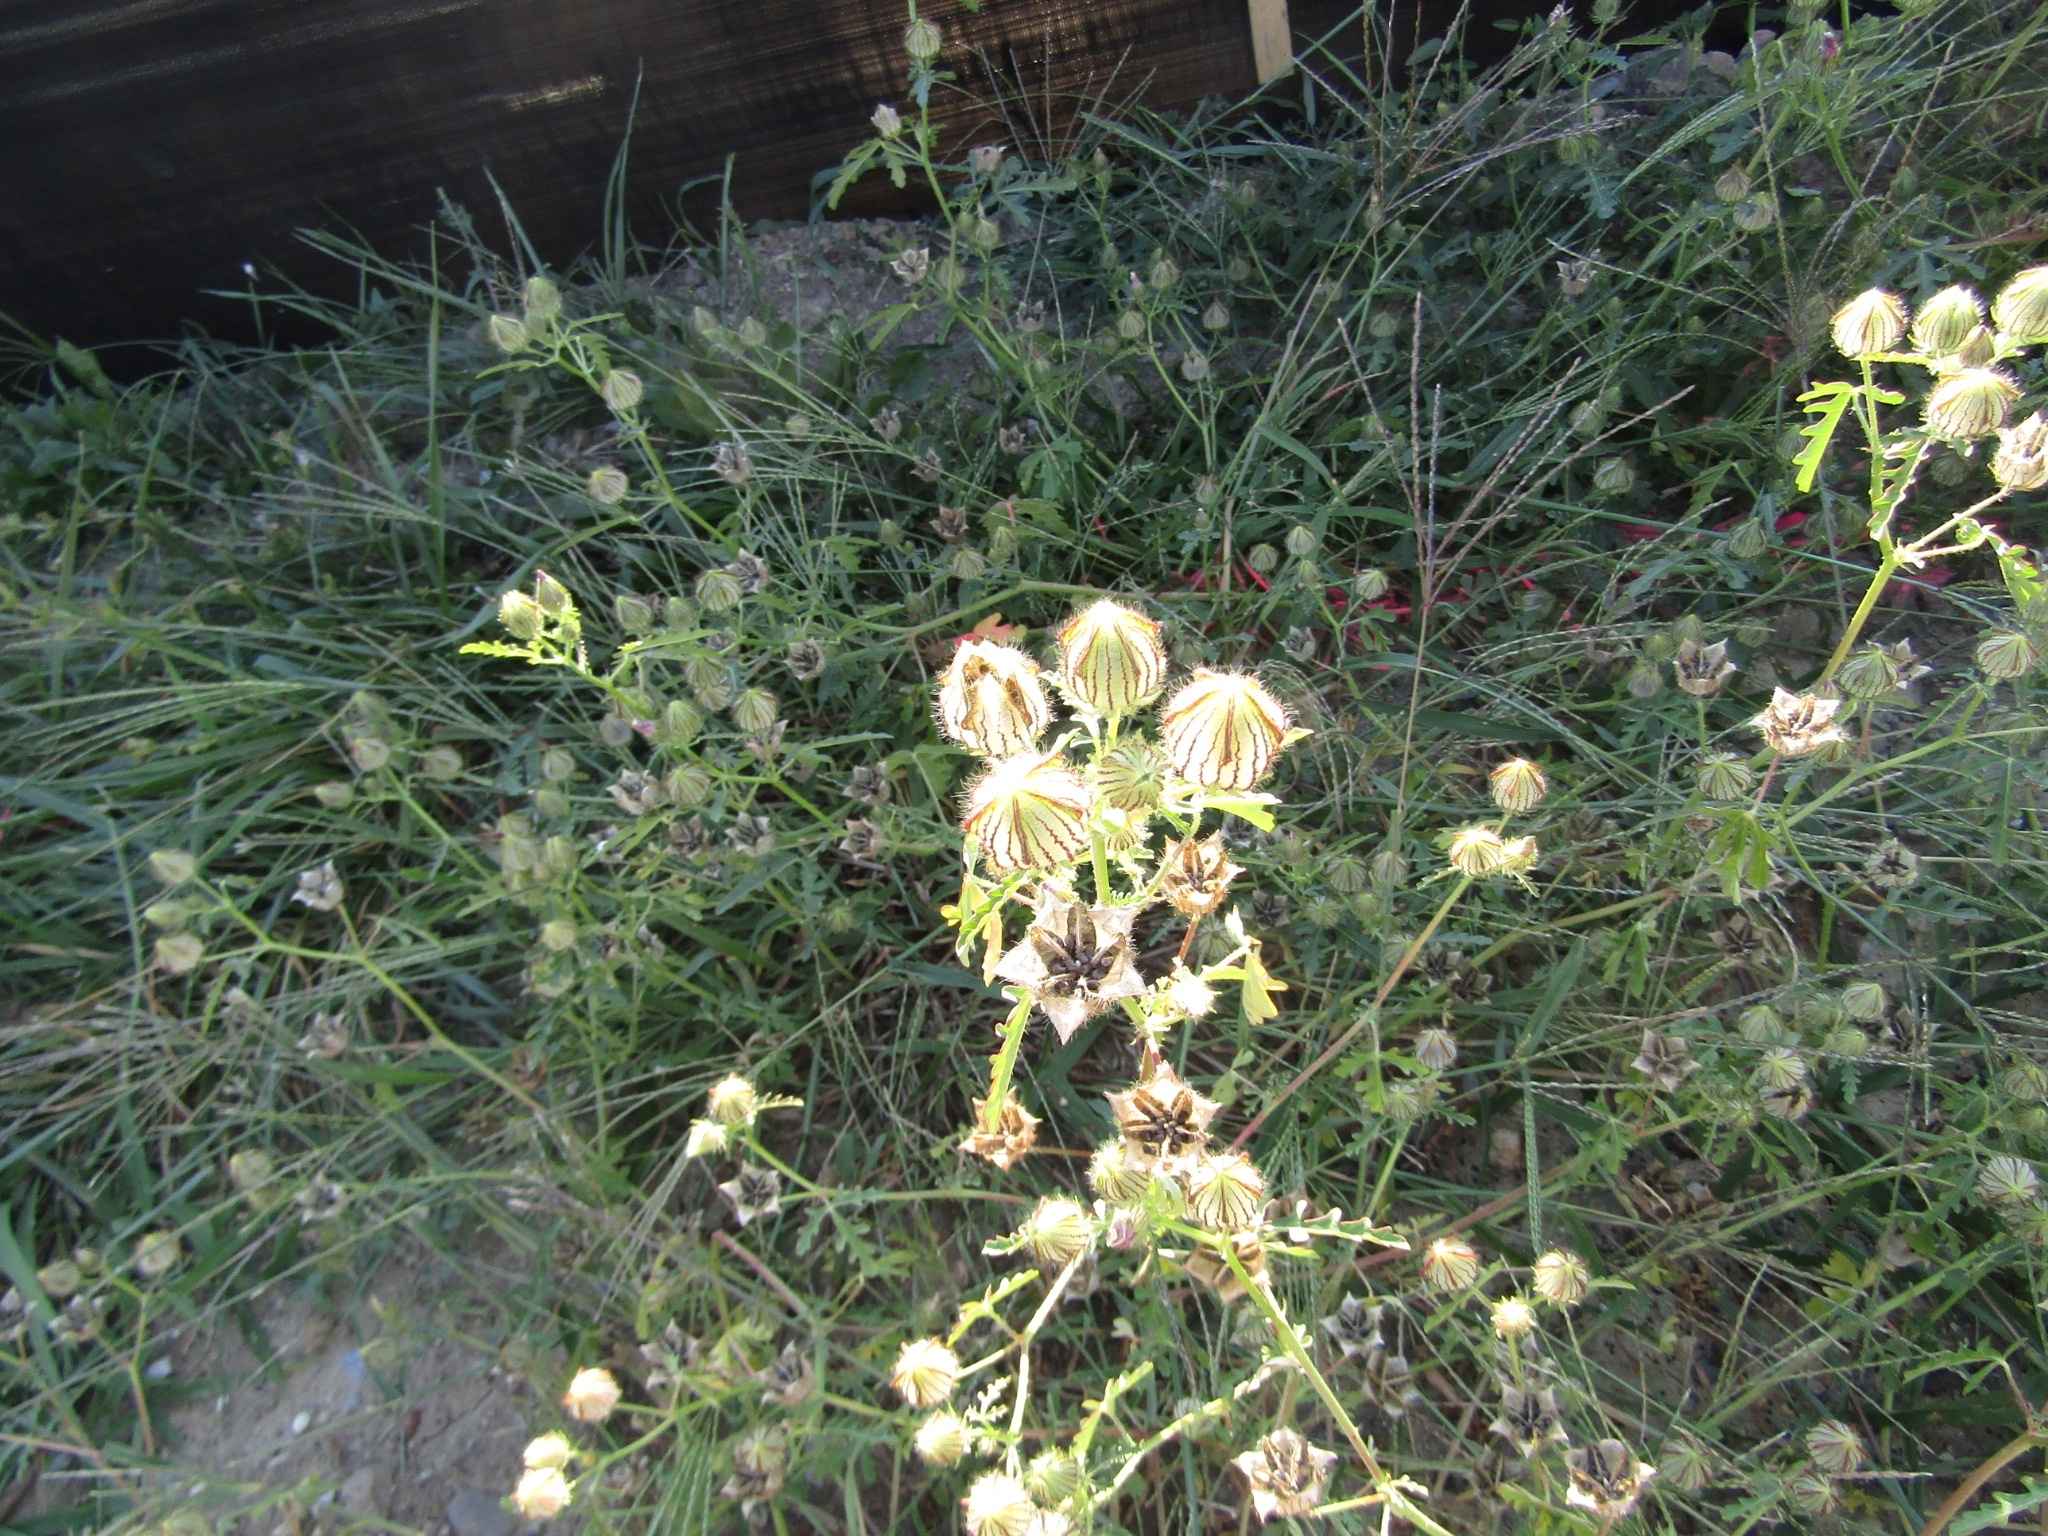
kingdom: Plantae
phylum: Tracheophyta
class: Magnoliopsida
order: Malvales
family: Malvaceae
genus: Hibiscus
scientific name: Hibiscus trionum
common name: Bladder ketmia
